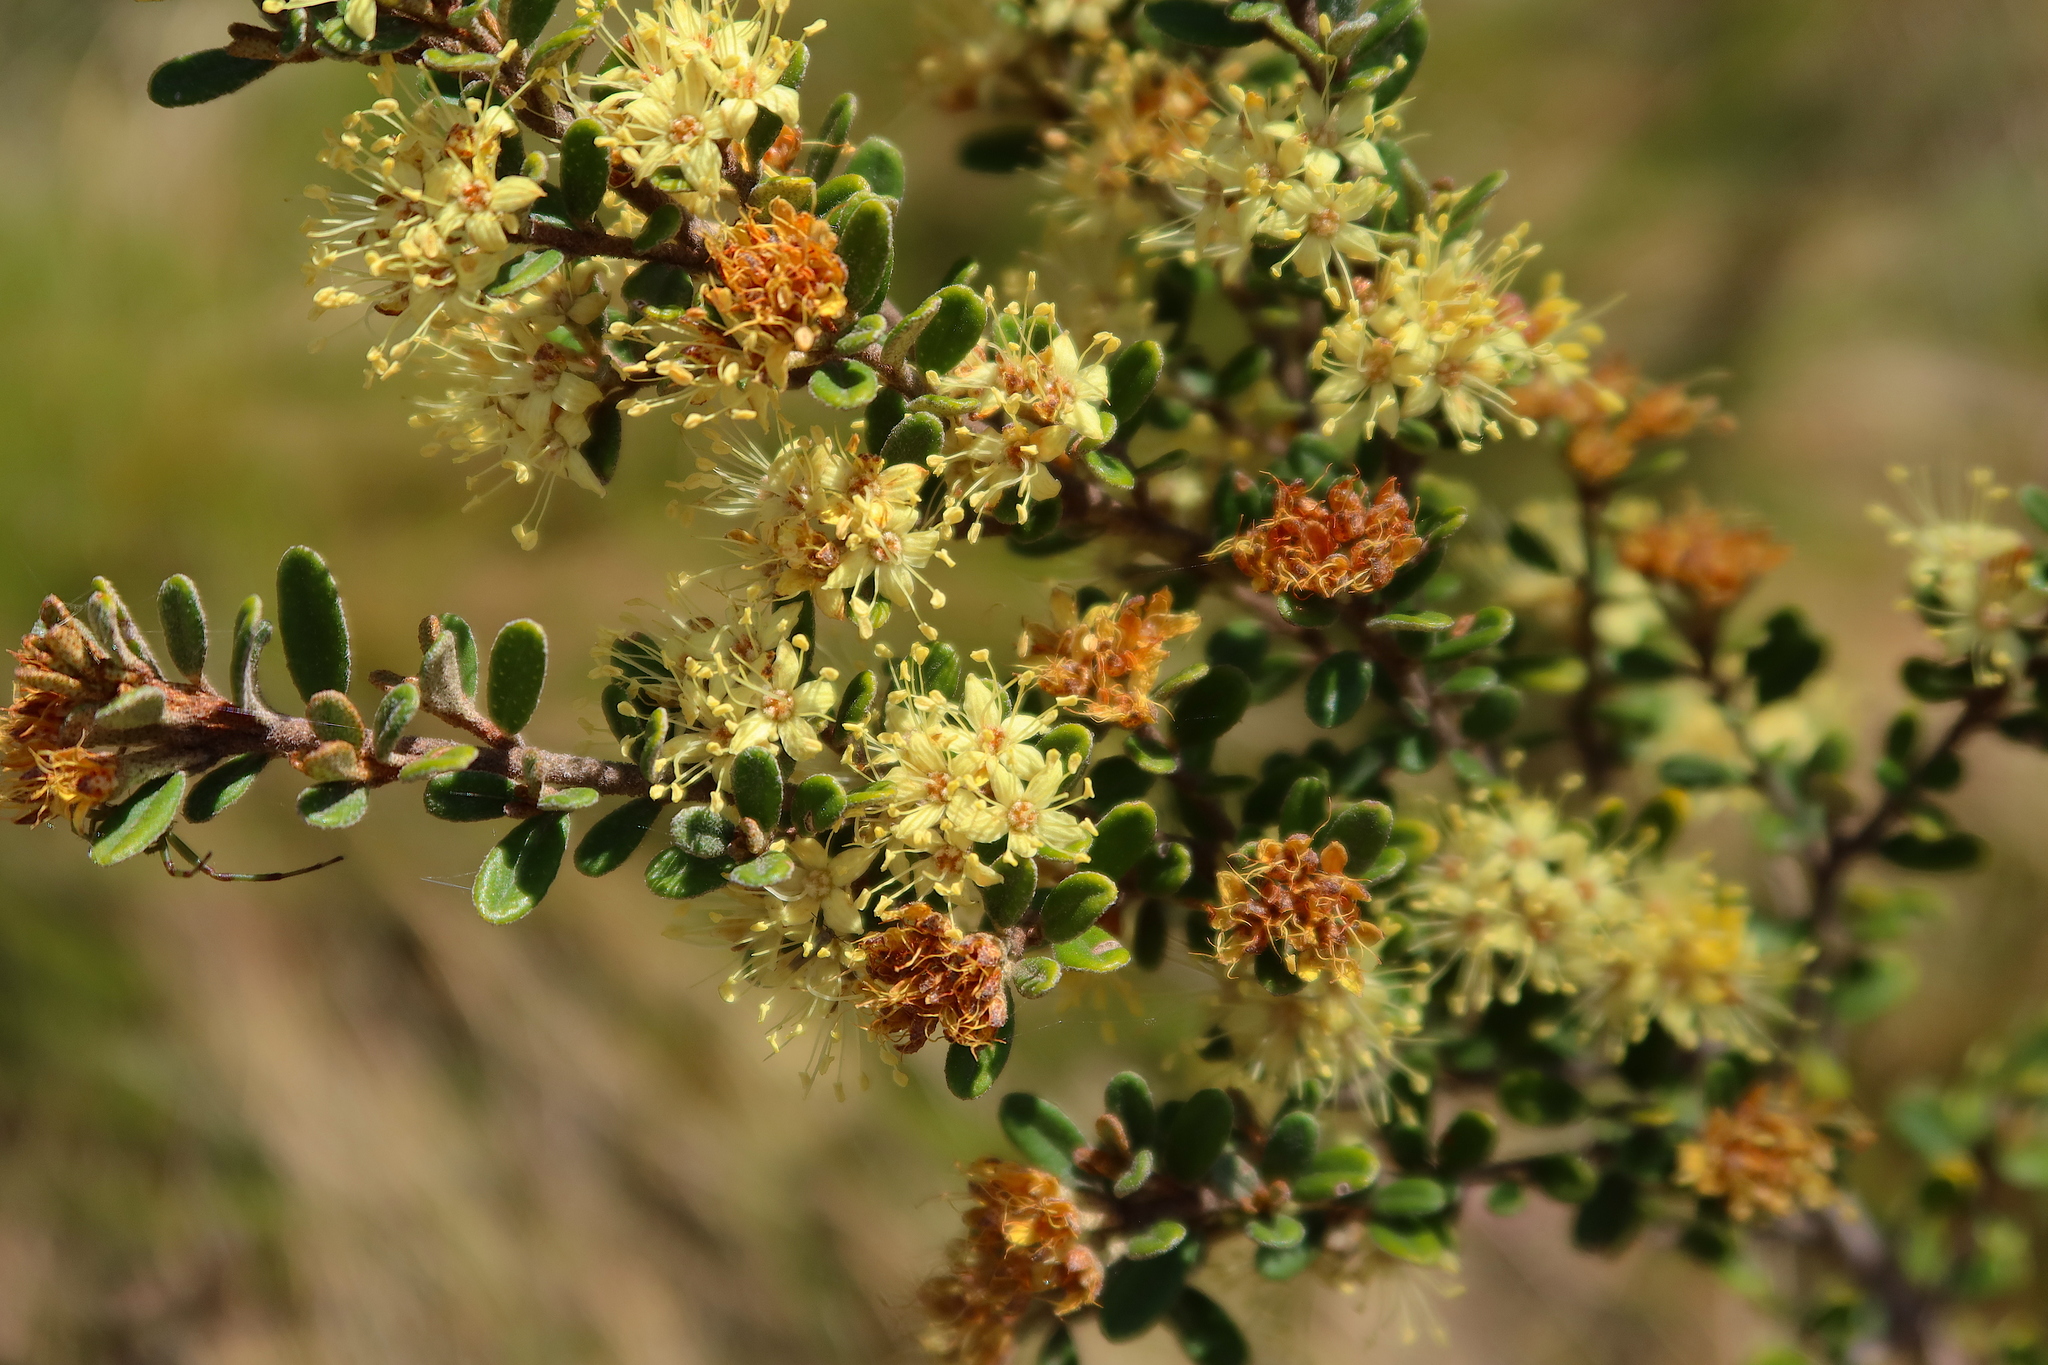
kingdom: Plantae
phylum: Tracheophyta
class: Magnoliopsida
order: Sapindales
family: Rutaceae
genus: Phebalium
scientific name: Phebalium squamulosum
